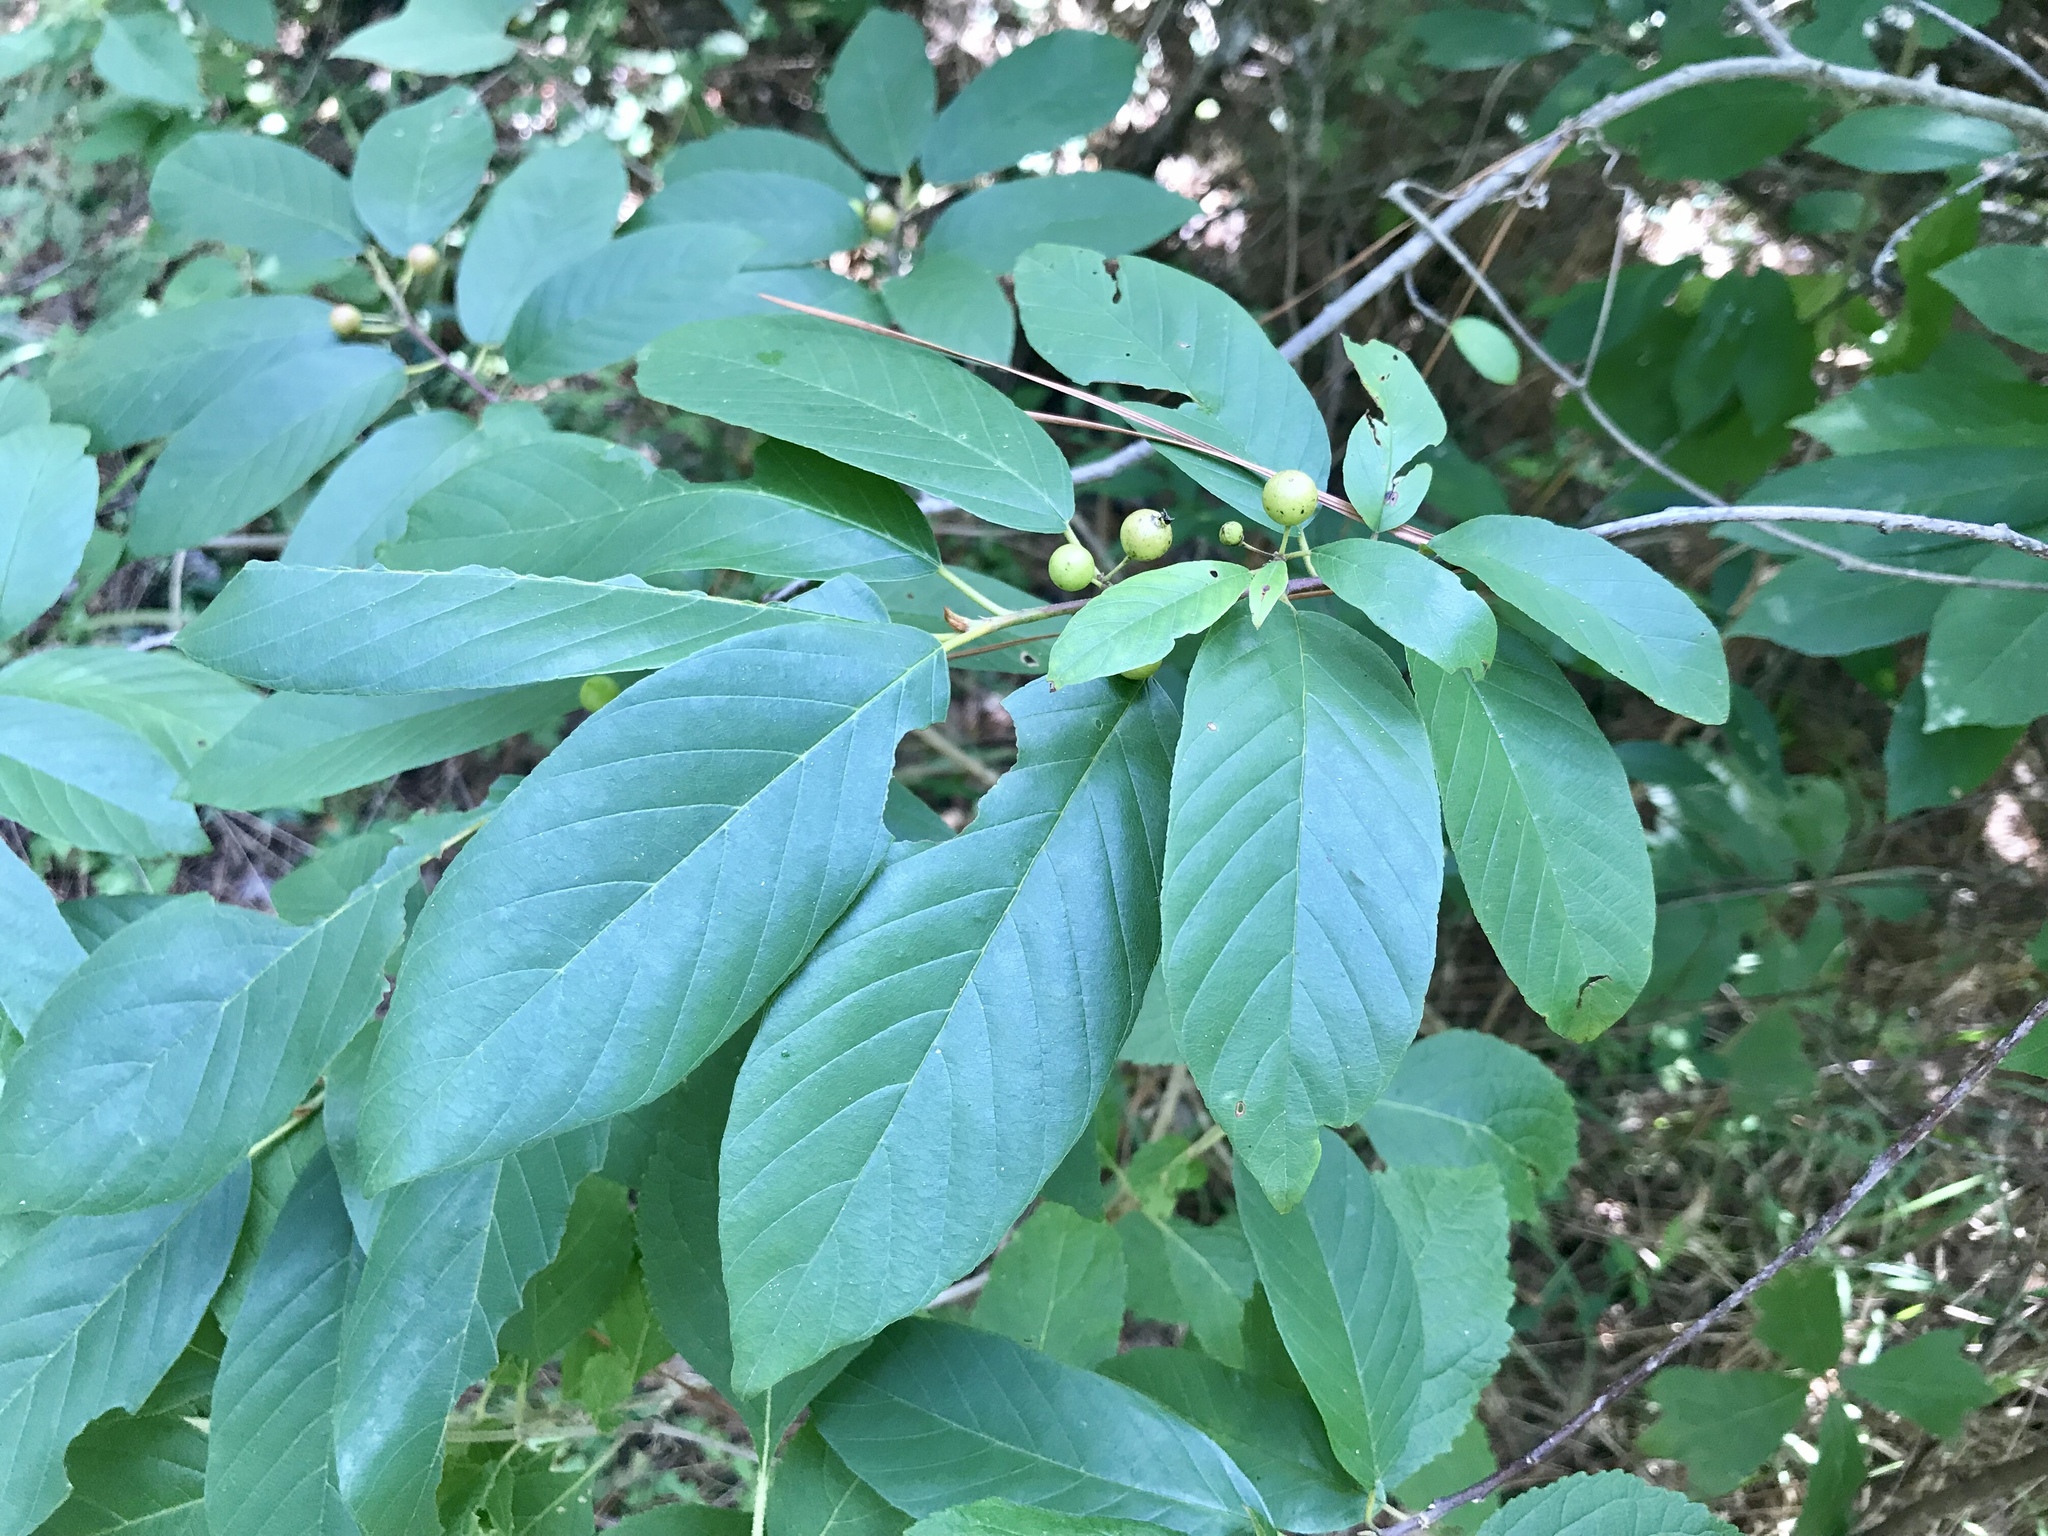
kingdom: Plantae
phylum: Tracheophyta
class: Magnoliopsida
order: Rosales
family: Rhamnaceae
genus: Frangula
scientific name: Frangula caroliniana
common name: Carolina buckthorn
